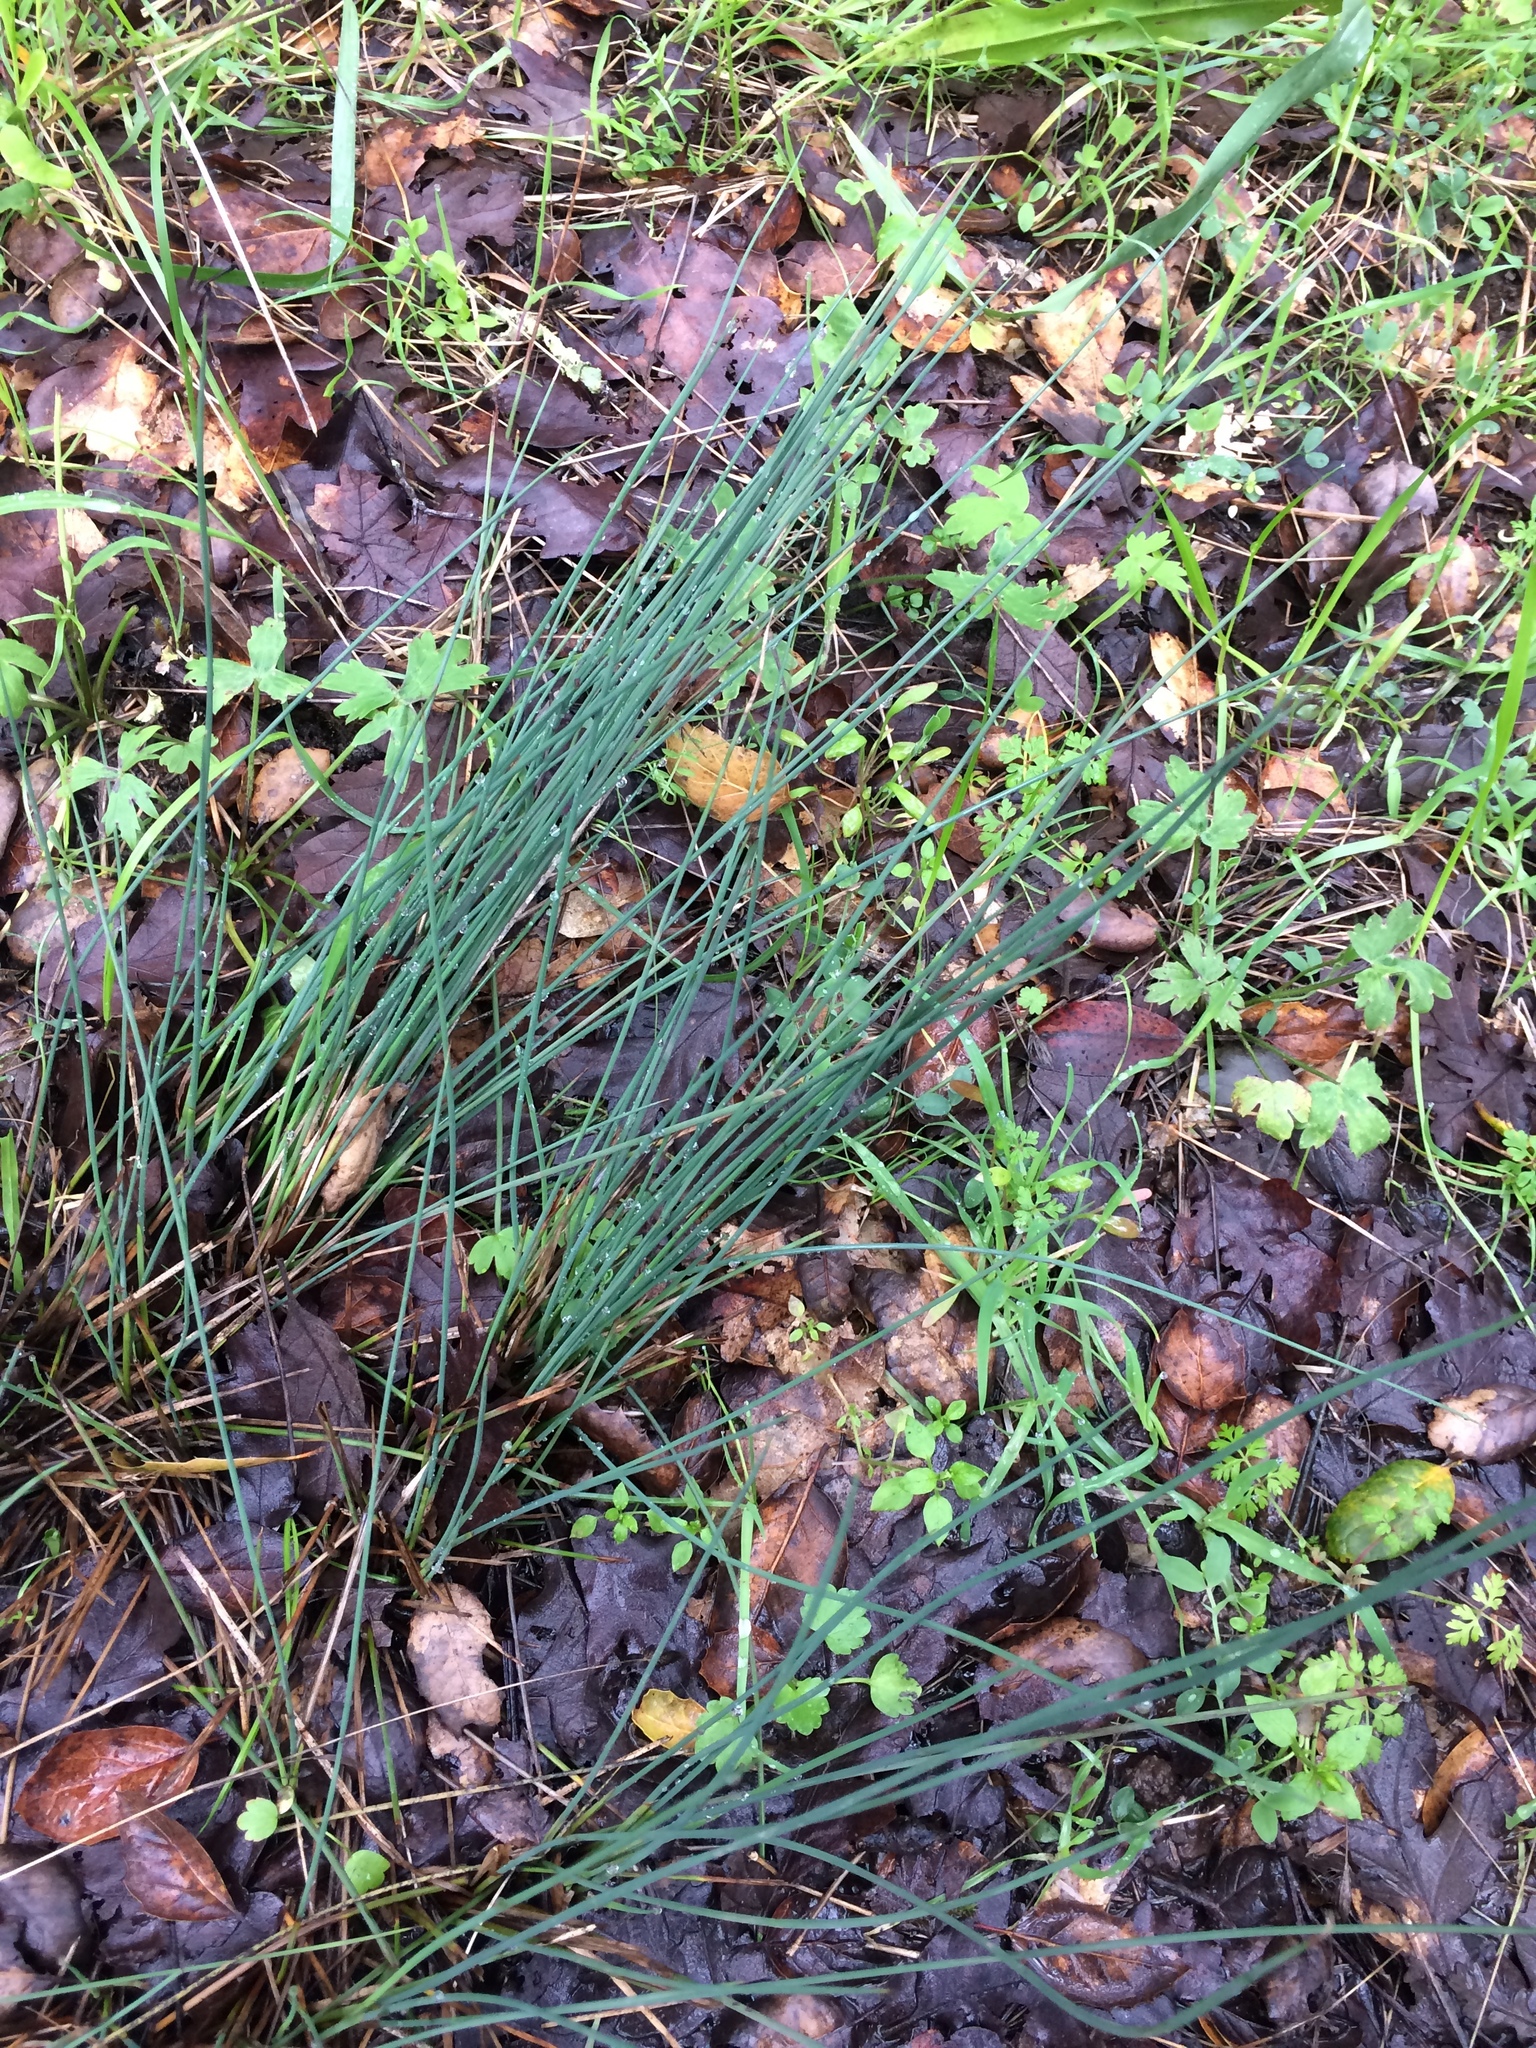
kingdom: Plantae
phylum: Tracheophyta
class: Liliopsida
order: Poales
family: Juncaceae
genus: Juncus
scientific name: Juncus patens
